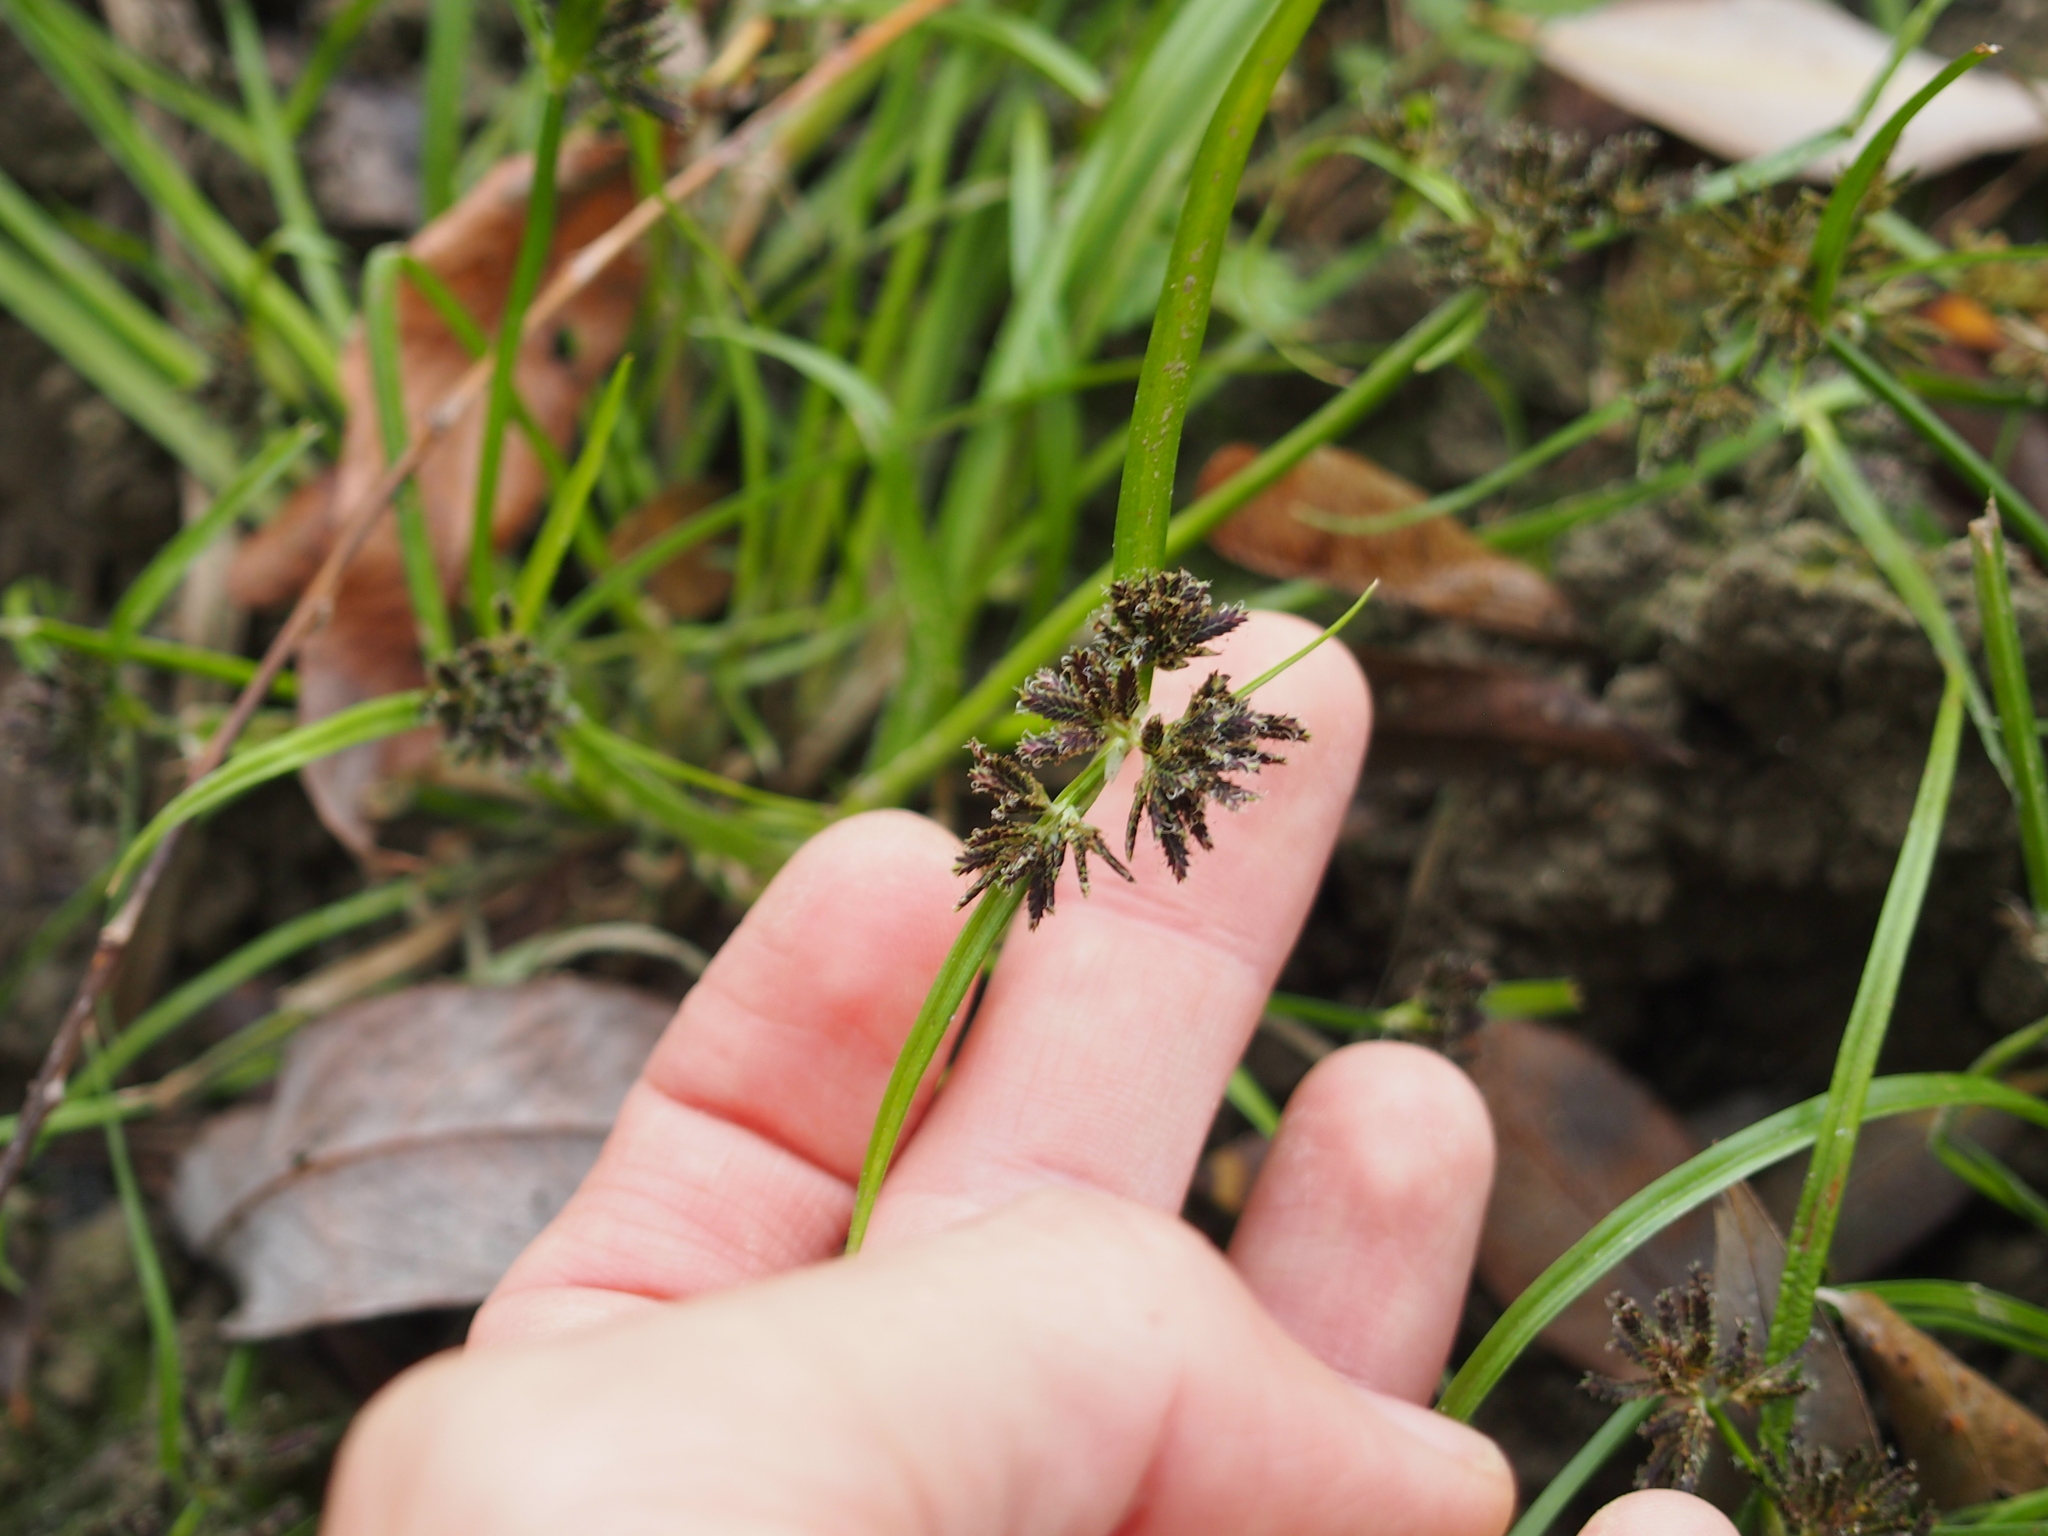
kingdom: Plantae
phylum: Tracheophyta
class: Liliopsida
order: Poales
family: Cyperaceae
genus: Cyperus
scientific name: Cyperus fuscus
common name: Brown galingale
